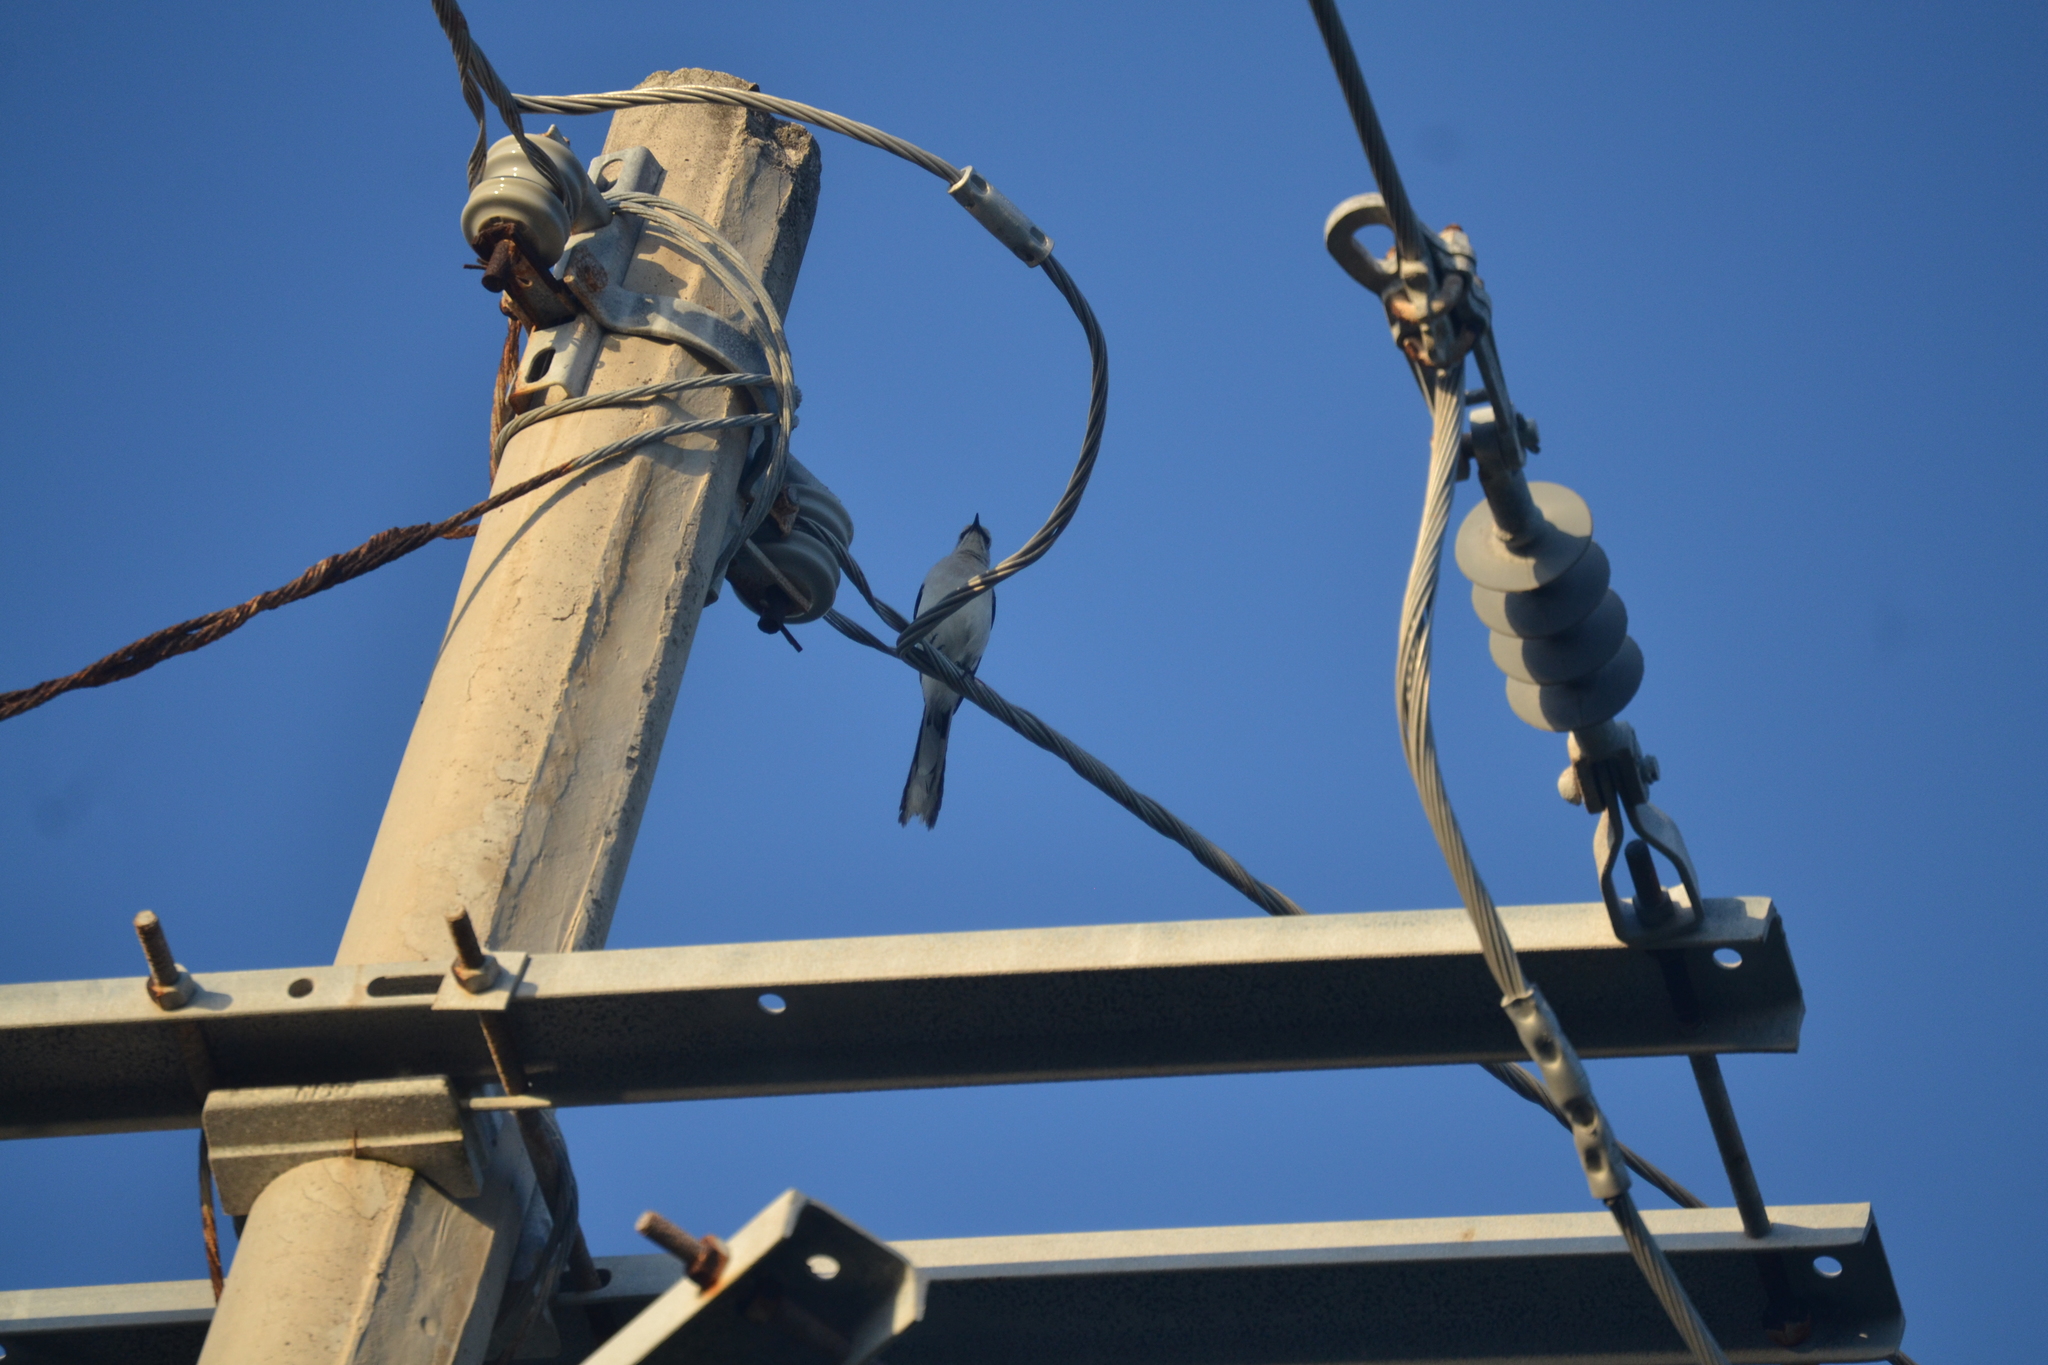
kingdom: Animalia
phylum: Chordata
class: Aves
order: Passeriformes
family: Mimidae
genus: Mimus
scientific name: Mimus gilvus
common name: Tropical mockingbird
